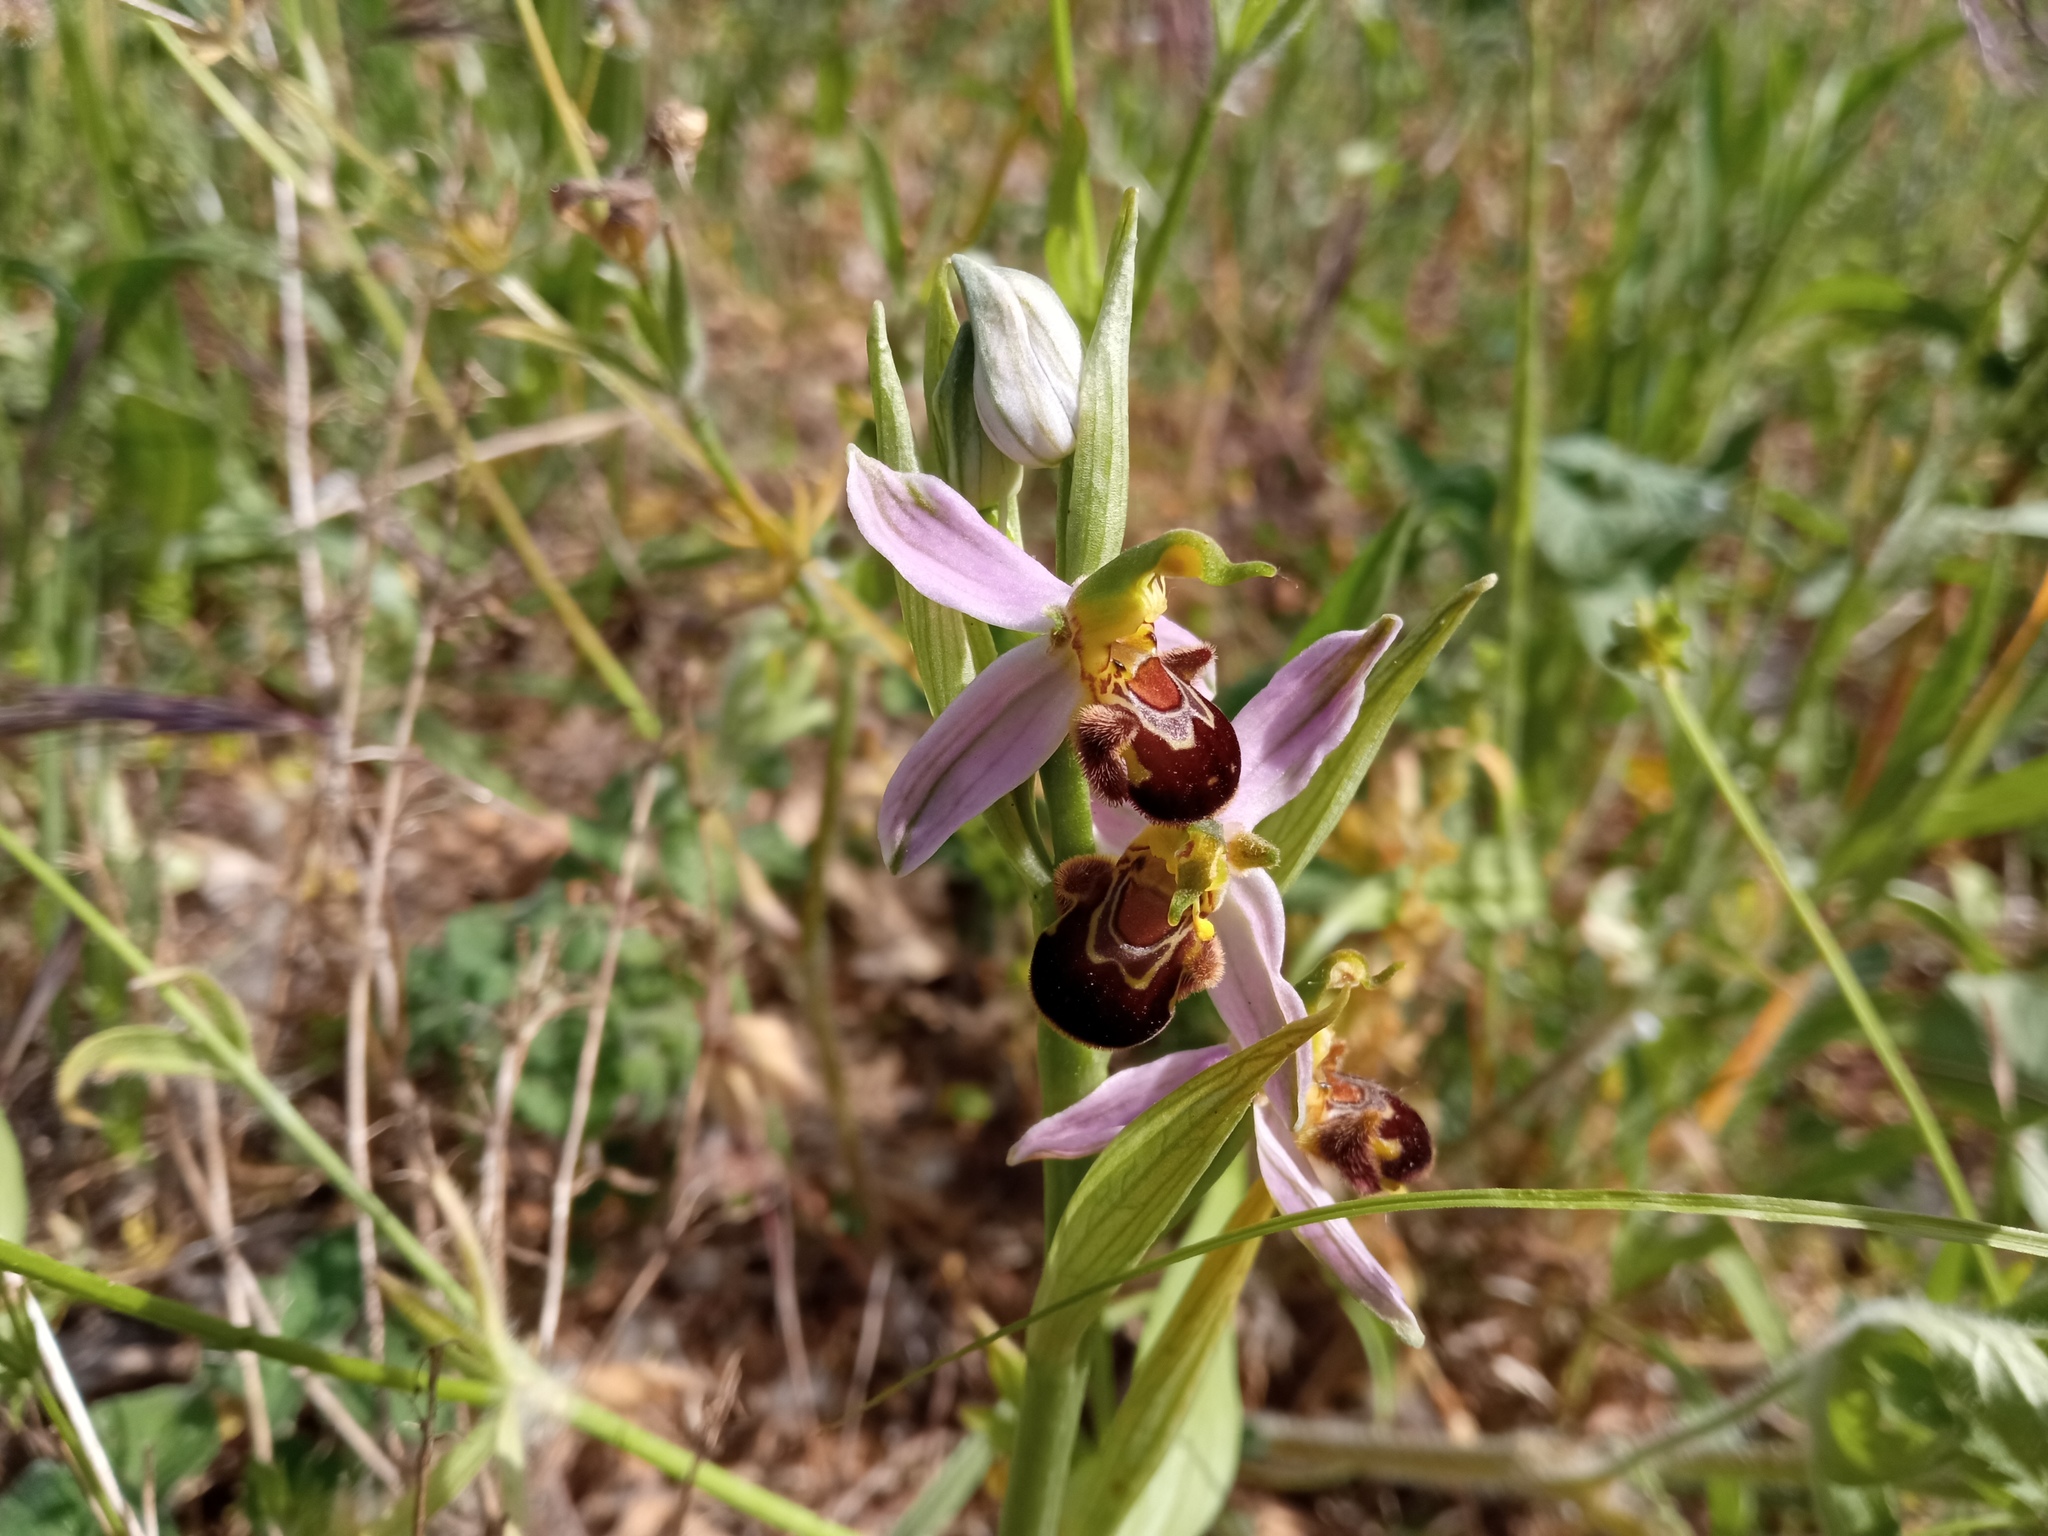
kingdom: Plantae
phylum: Tracheophyta
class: Liliopsida
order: Asparagales
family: Orchidaceae
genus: Ophrys
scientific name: Ophrys apifera
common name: Bee orchid
